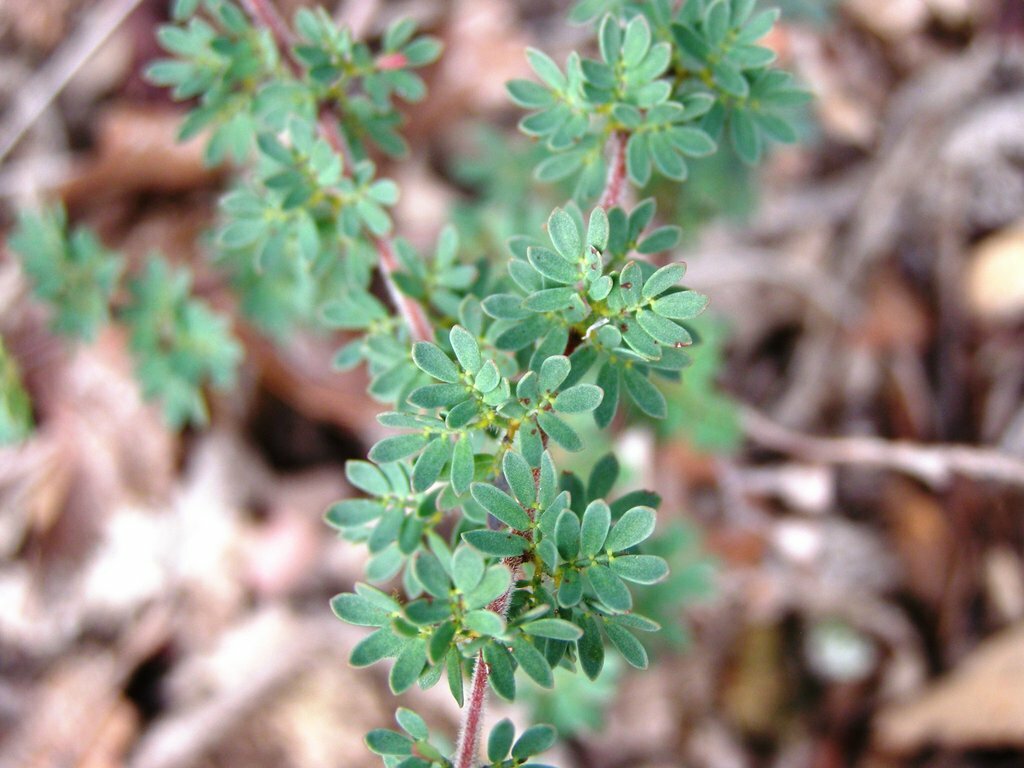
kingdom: Plantae
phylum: Tracheophyta
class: Magnoliopsida
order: Fabales
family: Fabaceae
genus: Acacia
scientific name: Acacia mitchellii
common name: Mitchell's wattle
